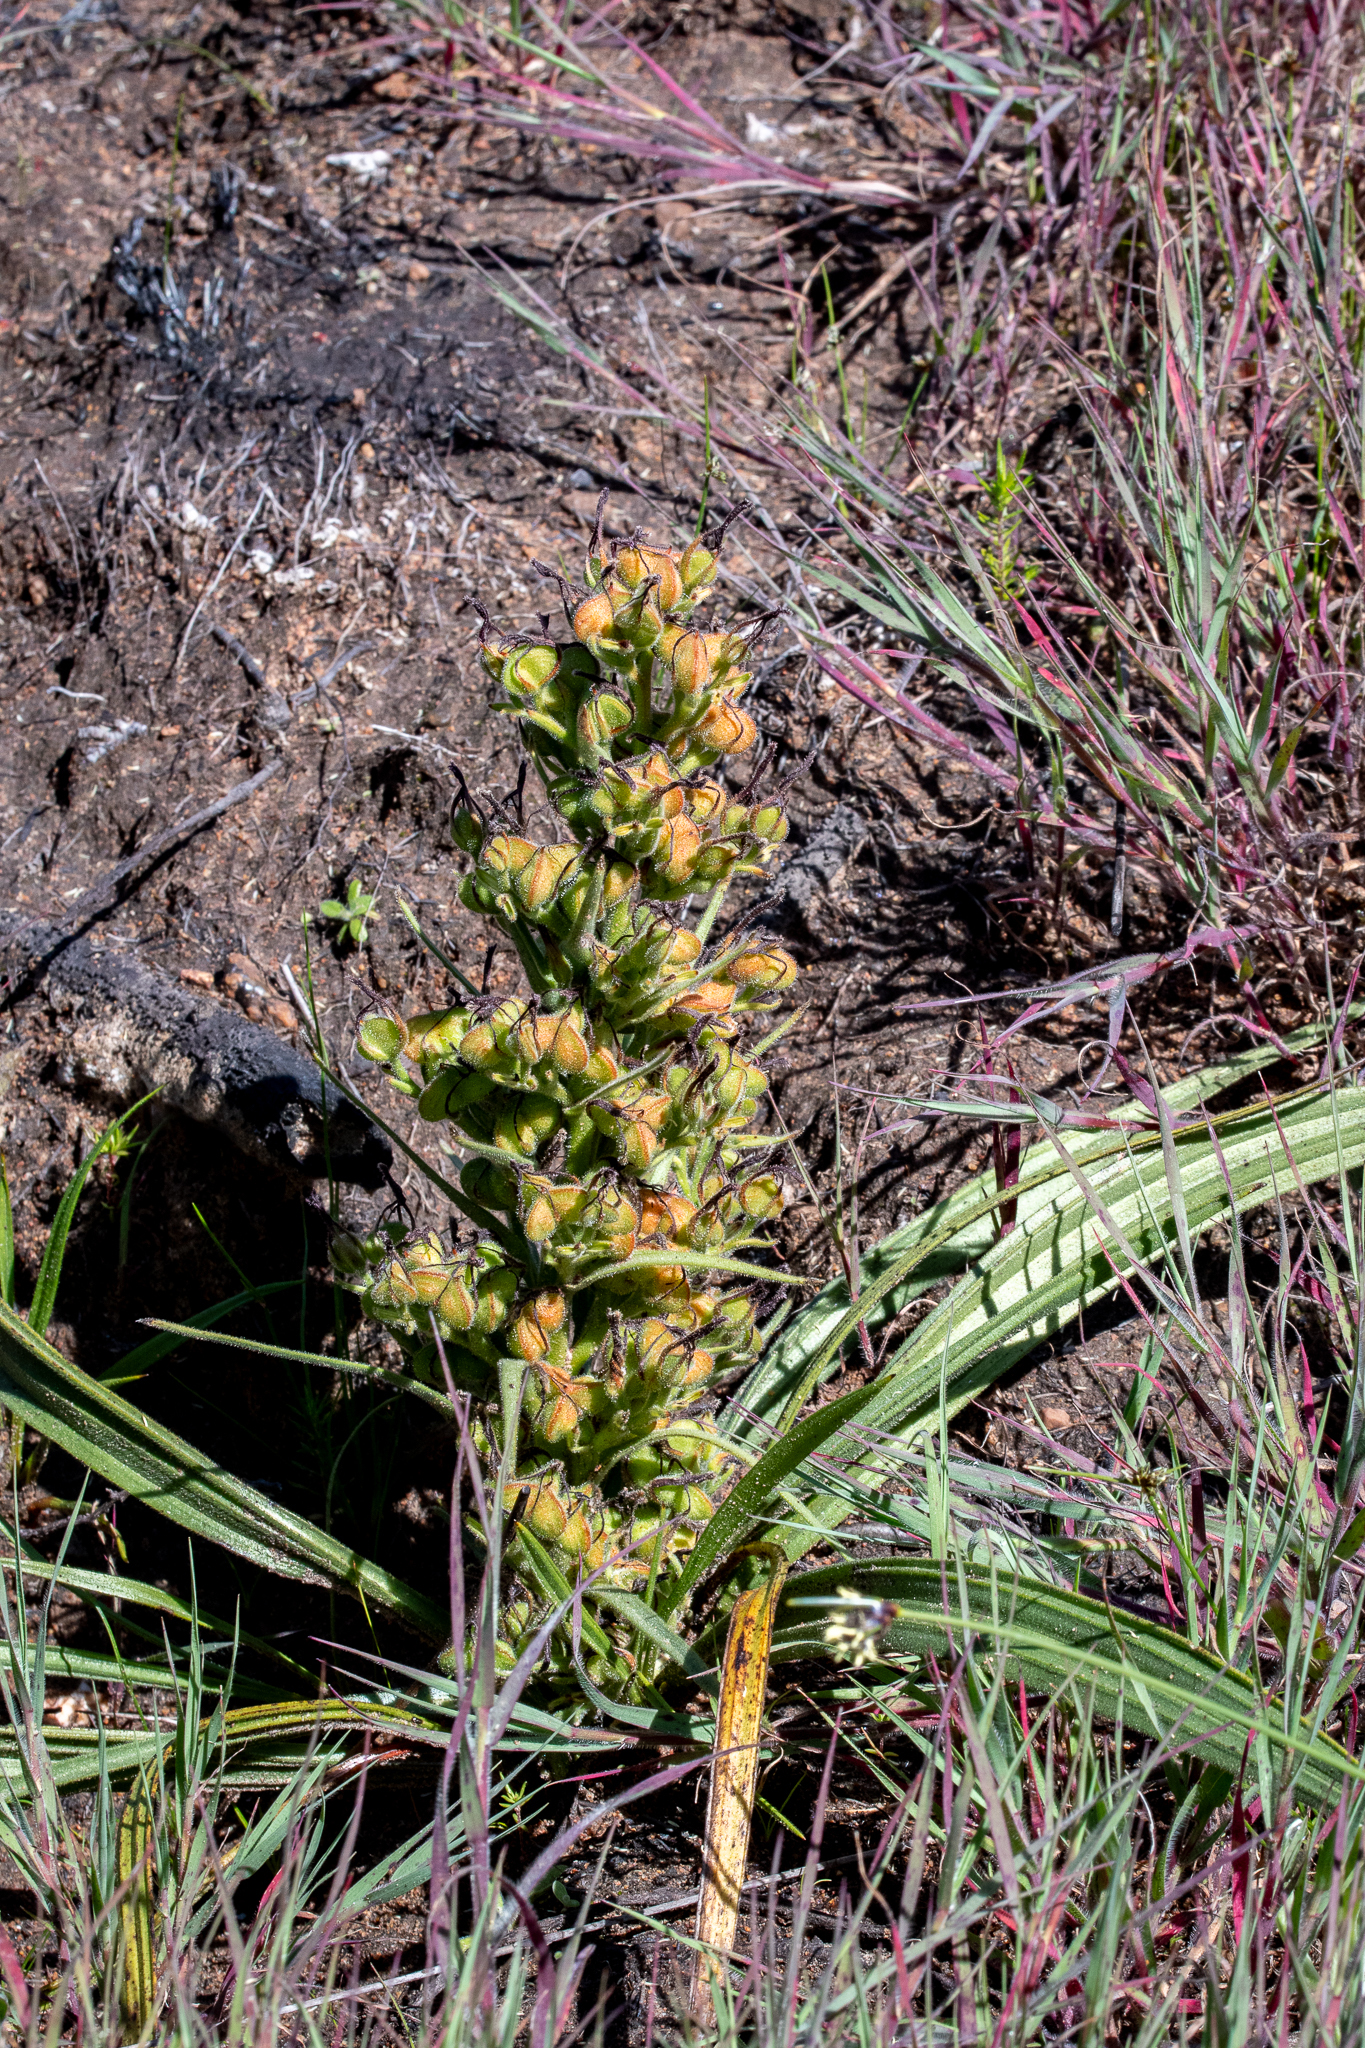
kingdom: Plantae
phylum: Tracheophyta
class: Liliopsida
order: Commelinales
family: Haemodoraceae
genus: Wachendorfia
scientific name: Wachendorfia paniculata
